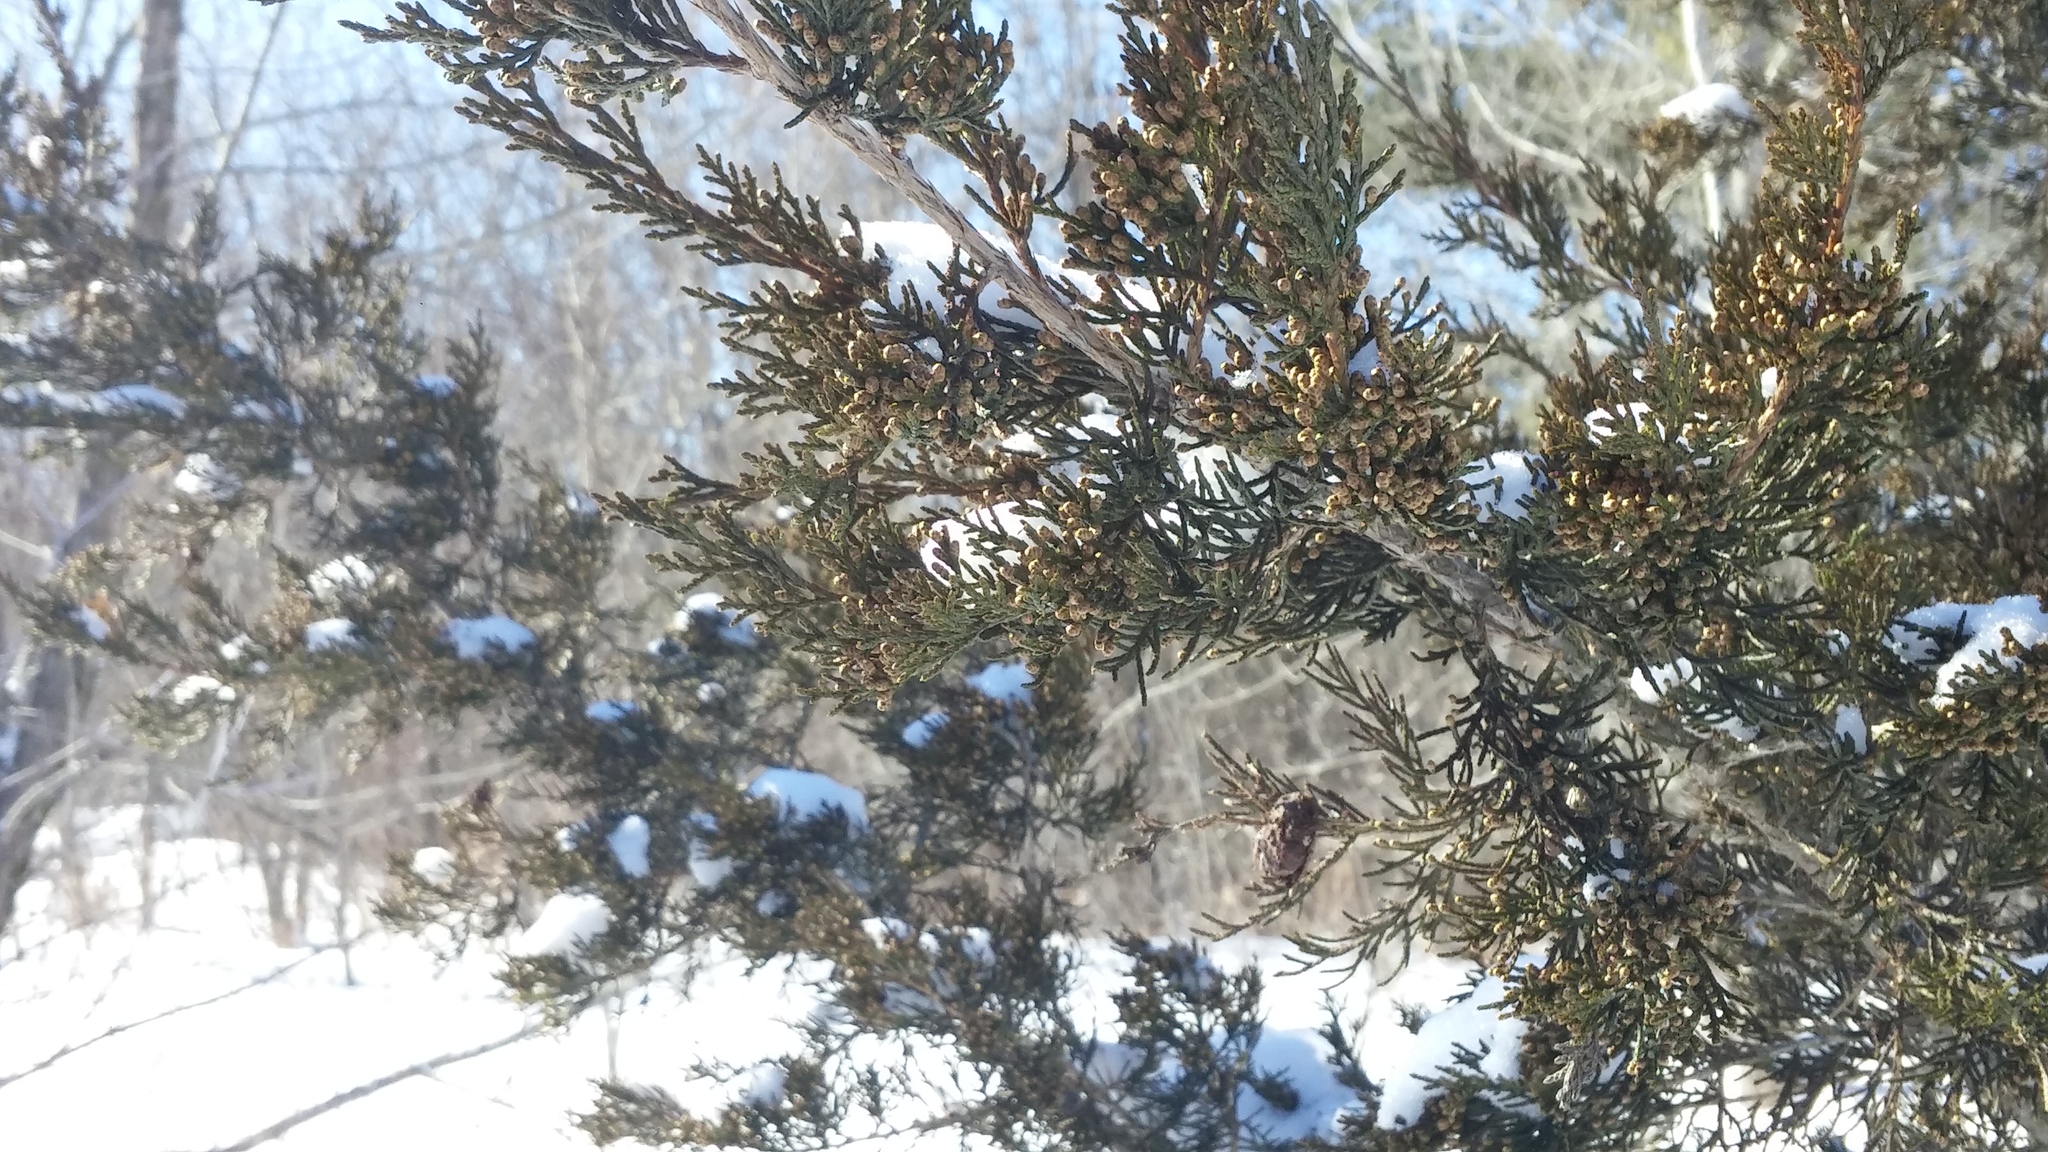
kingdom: Plantae
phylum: Tracheophyta
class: Pinopsida
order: Pinales
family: Cupressaceae
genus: Juniperus
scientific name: Juniperus virginiana
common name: Red juniper
